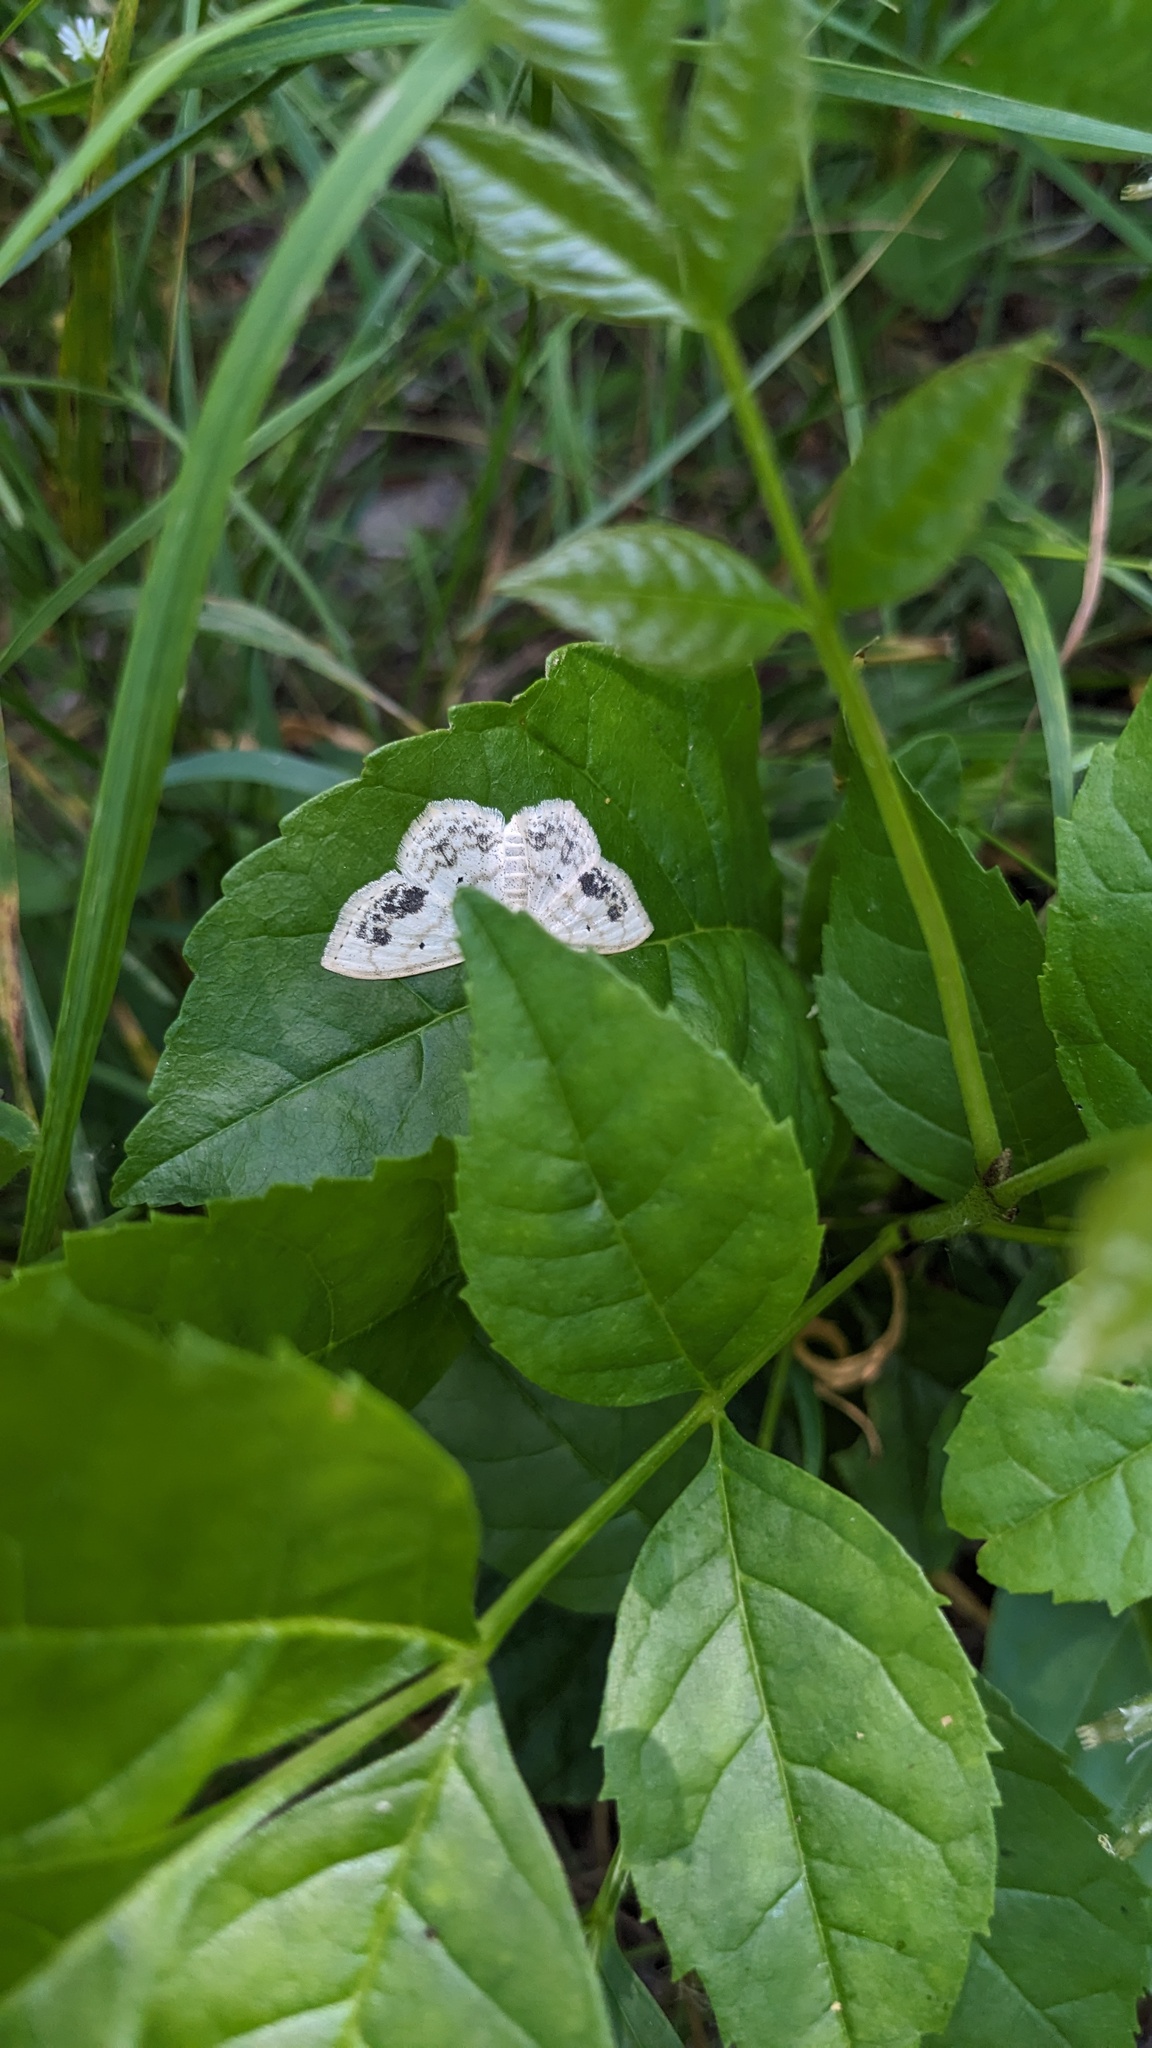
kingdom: Animalia
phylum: Arthropoda
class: Insecta
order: Lepidoptera
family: Geometridae
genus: Scopula
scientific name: Scopula limboundata
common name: Large lace border
